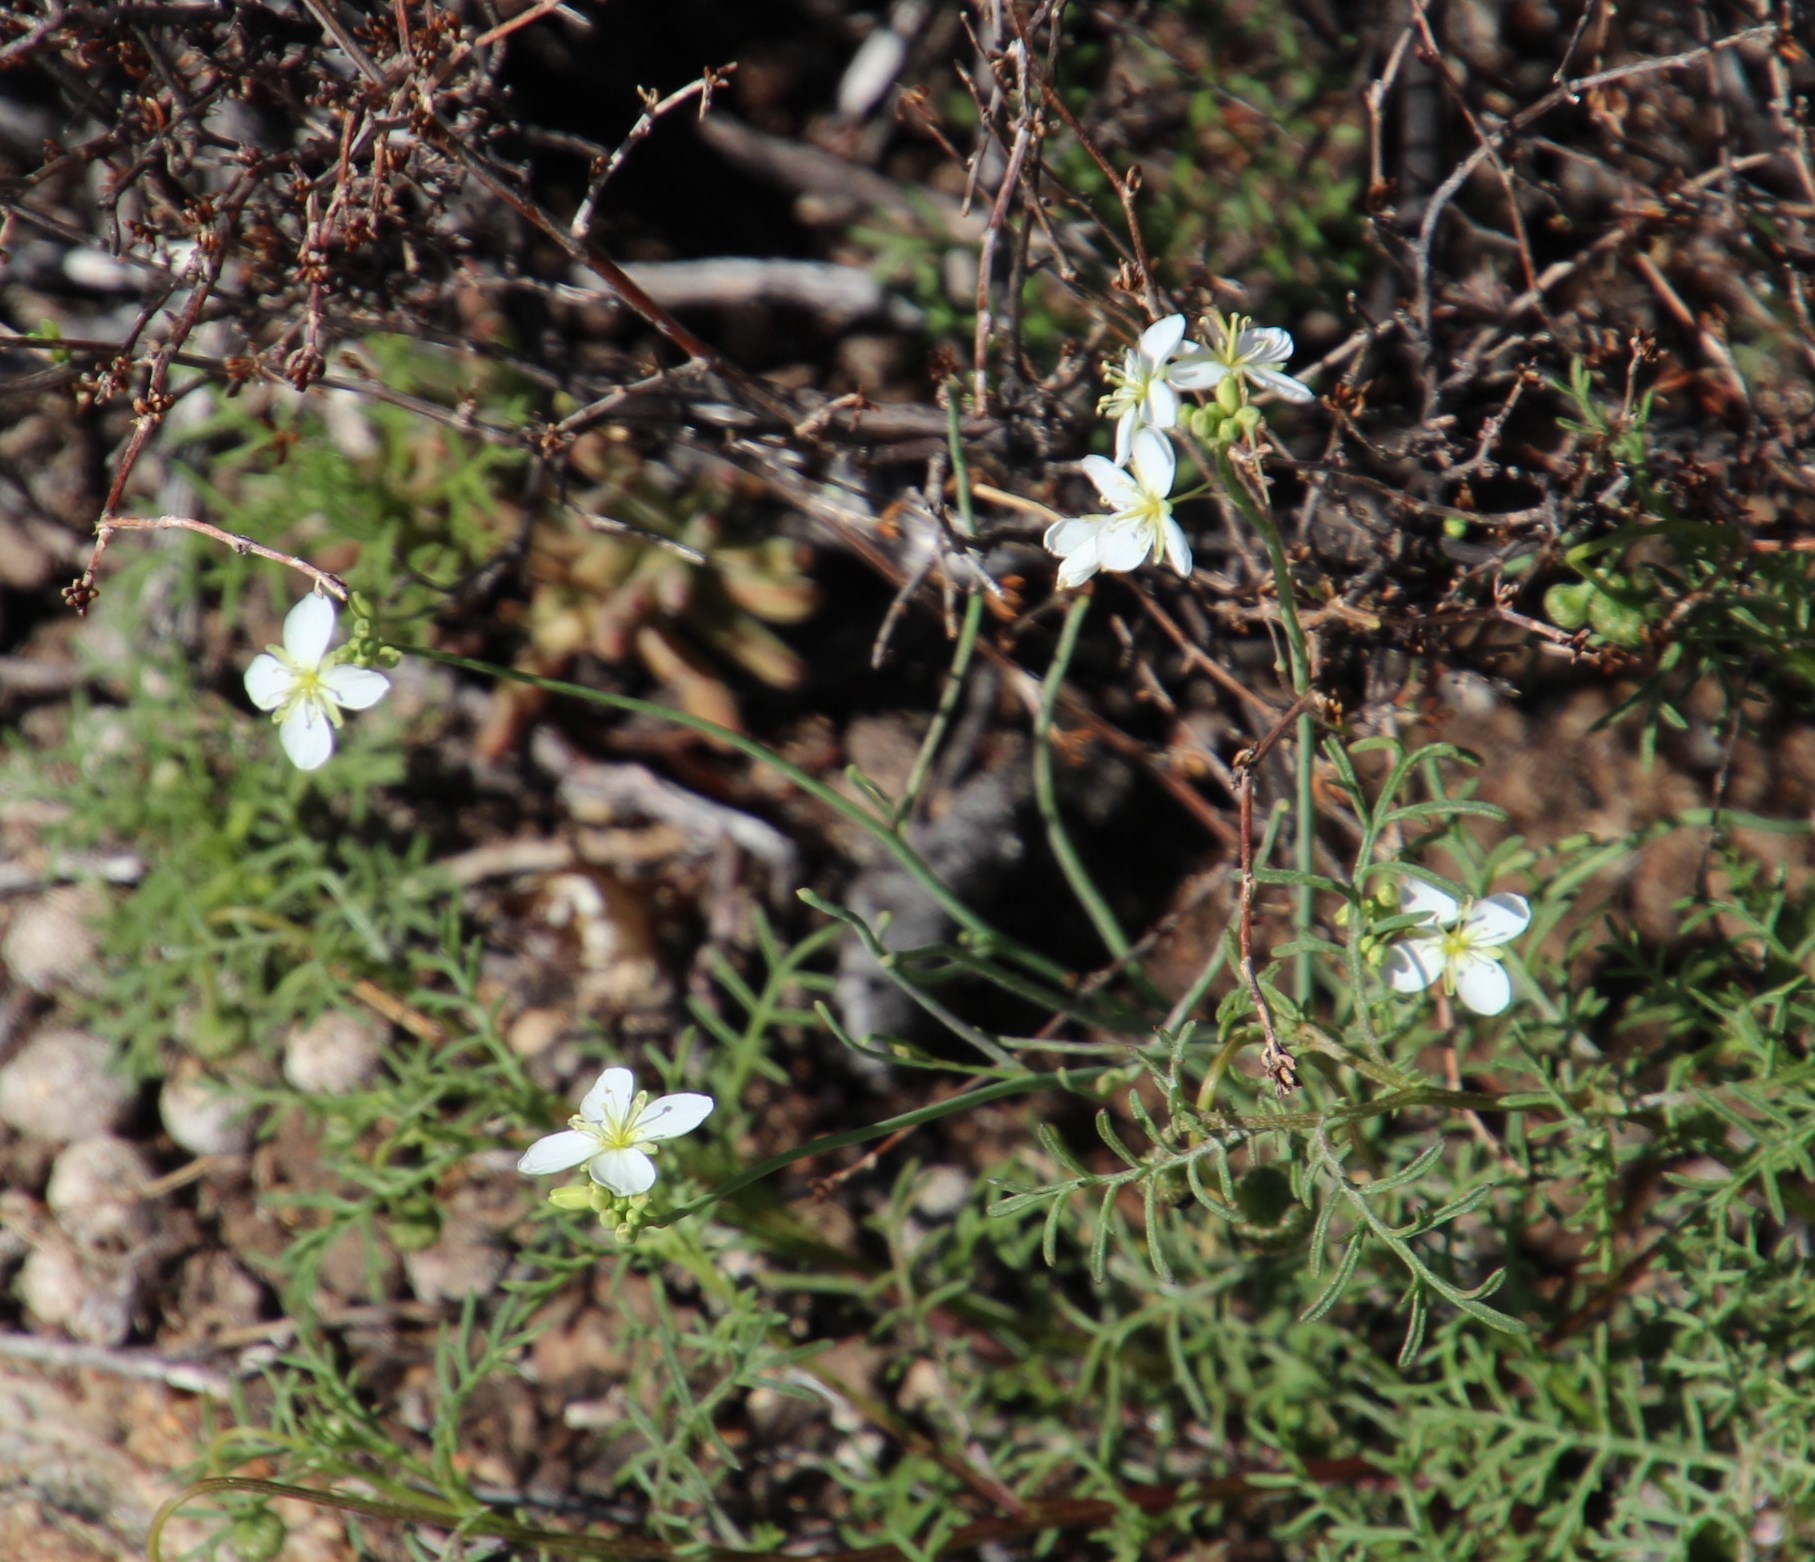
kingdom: Plantae
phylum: Tracheophyta
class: Magnoliopsida
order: Brassicales
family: Brassicaceae
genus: Heliophila
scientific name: Heliophila seselifolia
